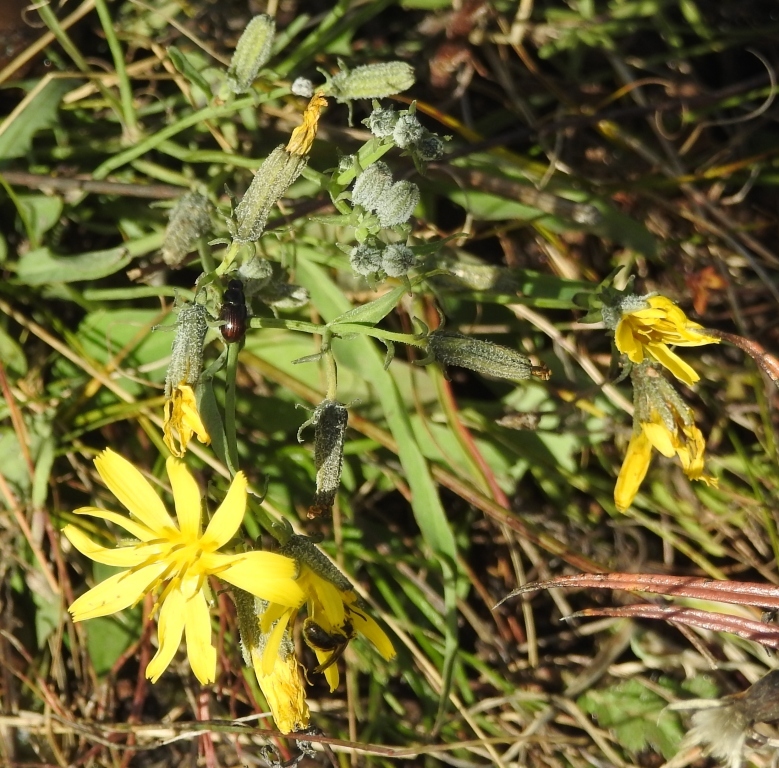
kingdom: Plantae
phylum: Tracheophyta
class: Magnoliopsida
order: Asterales
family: Asteraceae
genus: Crepidiastrum
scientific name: Crepidiastrum tenuifolium
